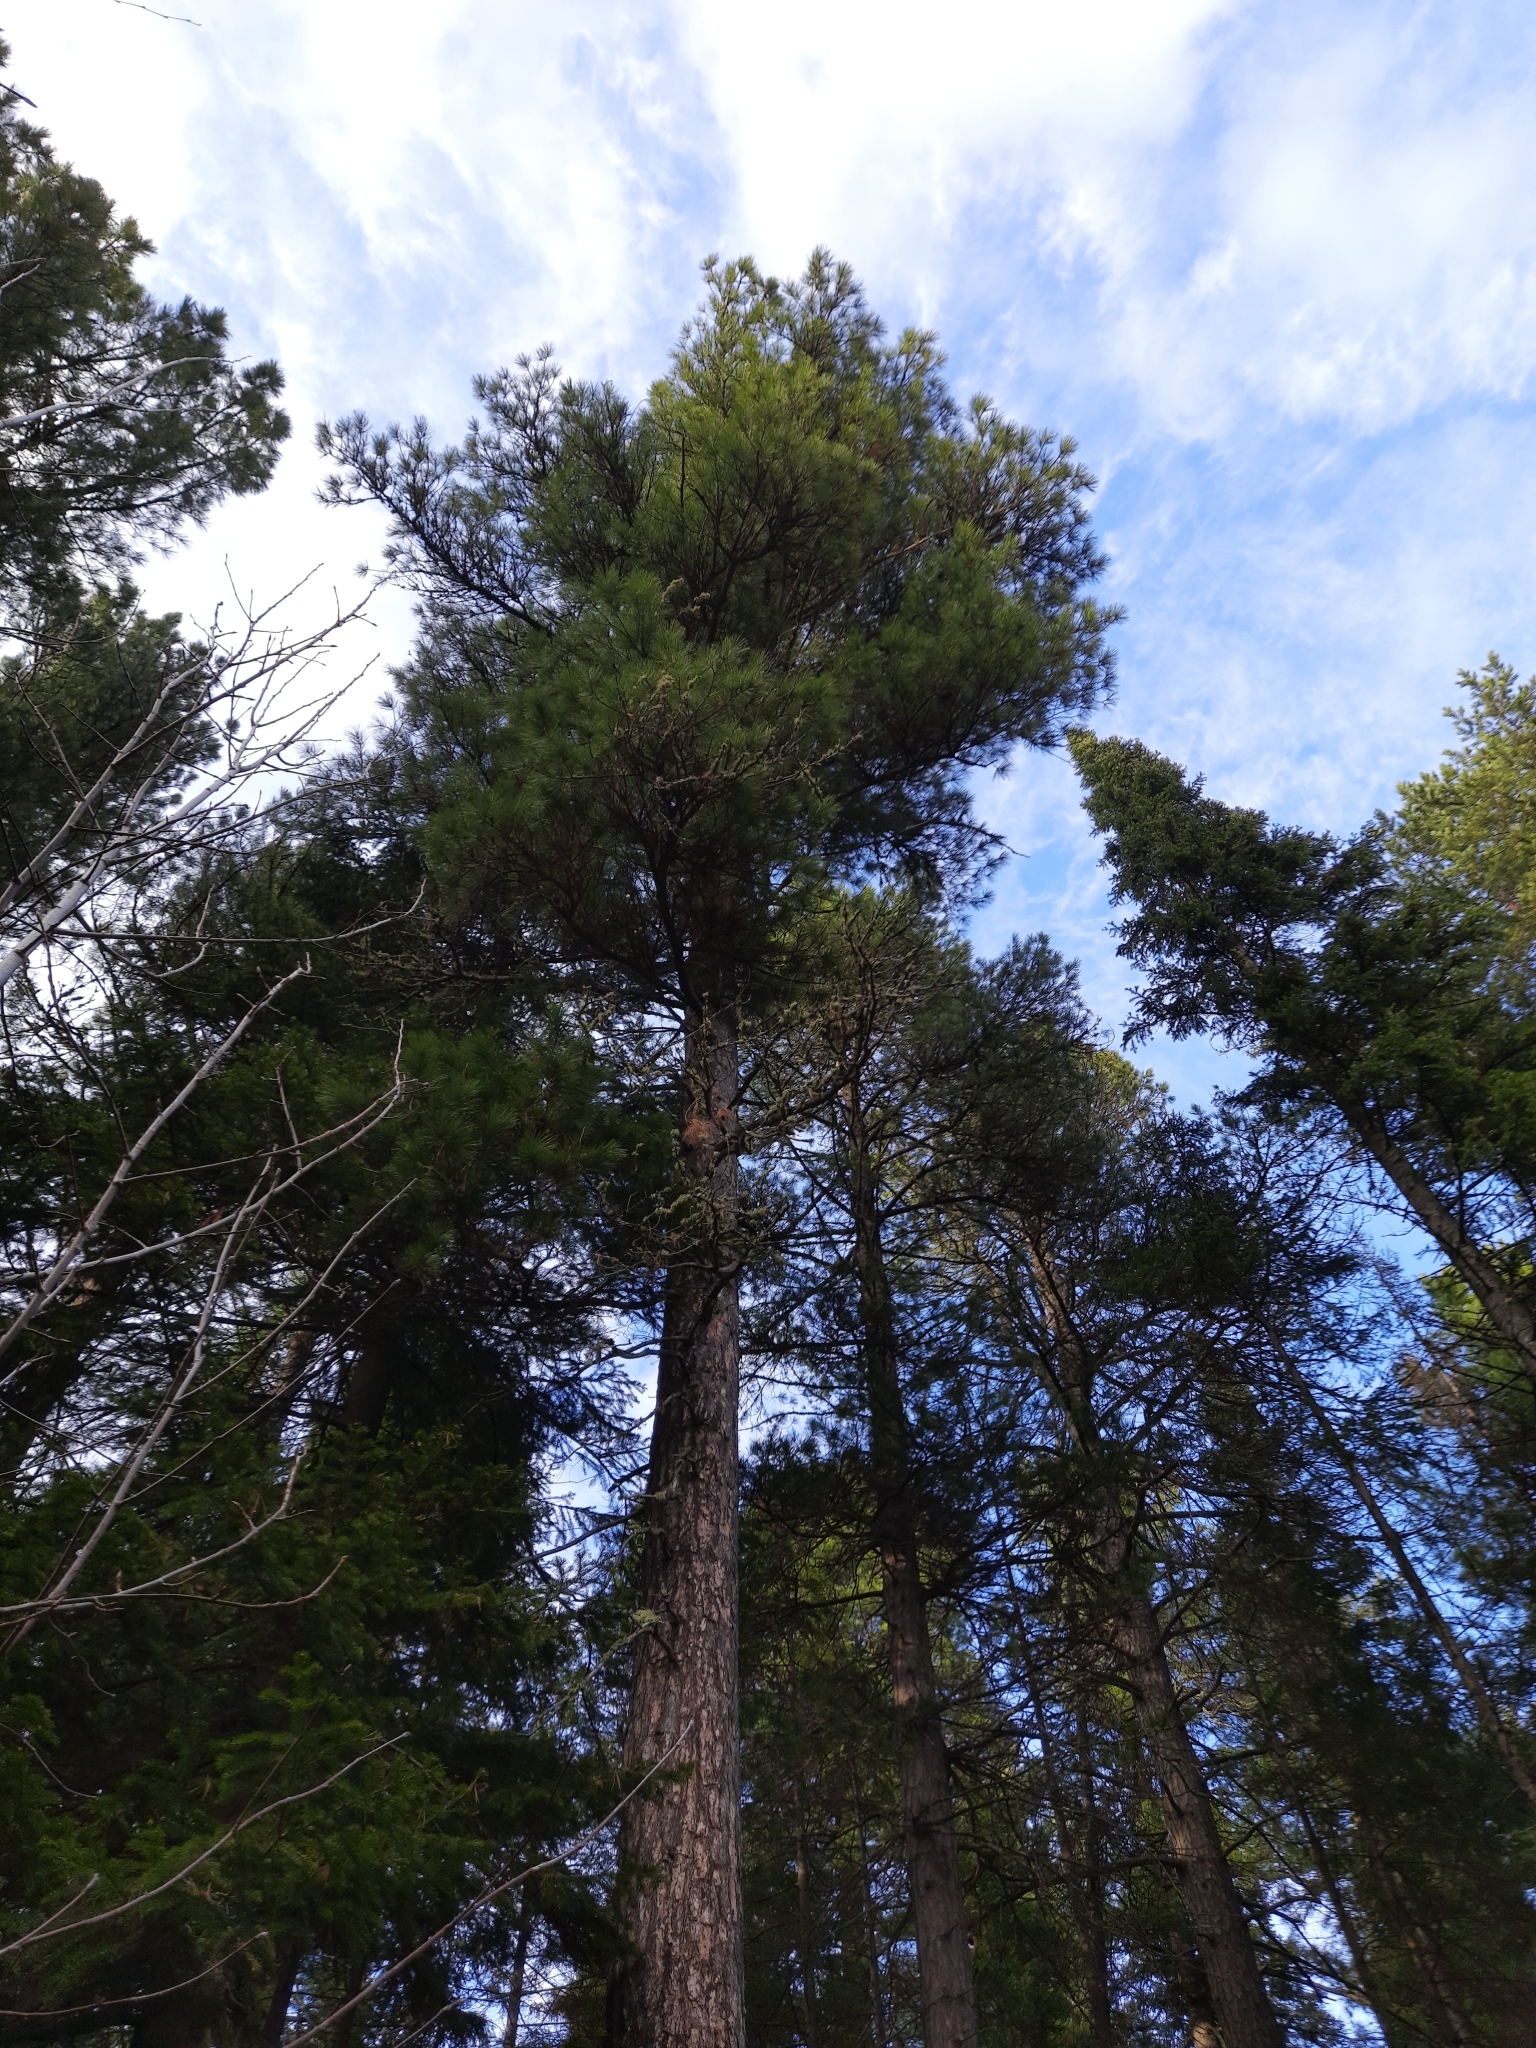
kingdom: Plantae
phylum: Tracheophyta
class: Pinopsida
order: Pinales
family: Pinaceae
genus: Pinus
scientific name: Pinus sibirica
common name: Siberian pine
